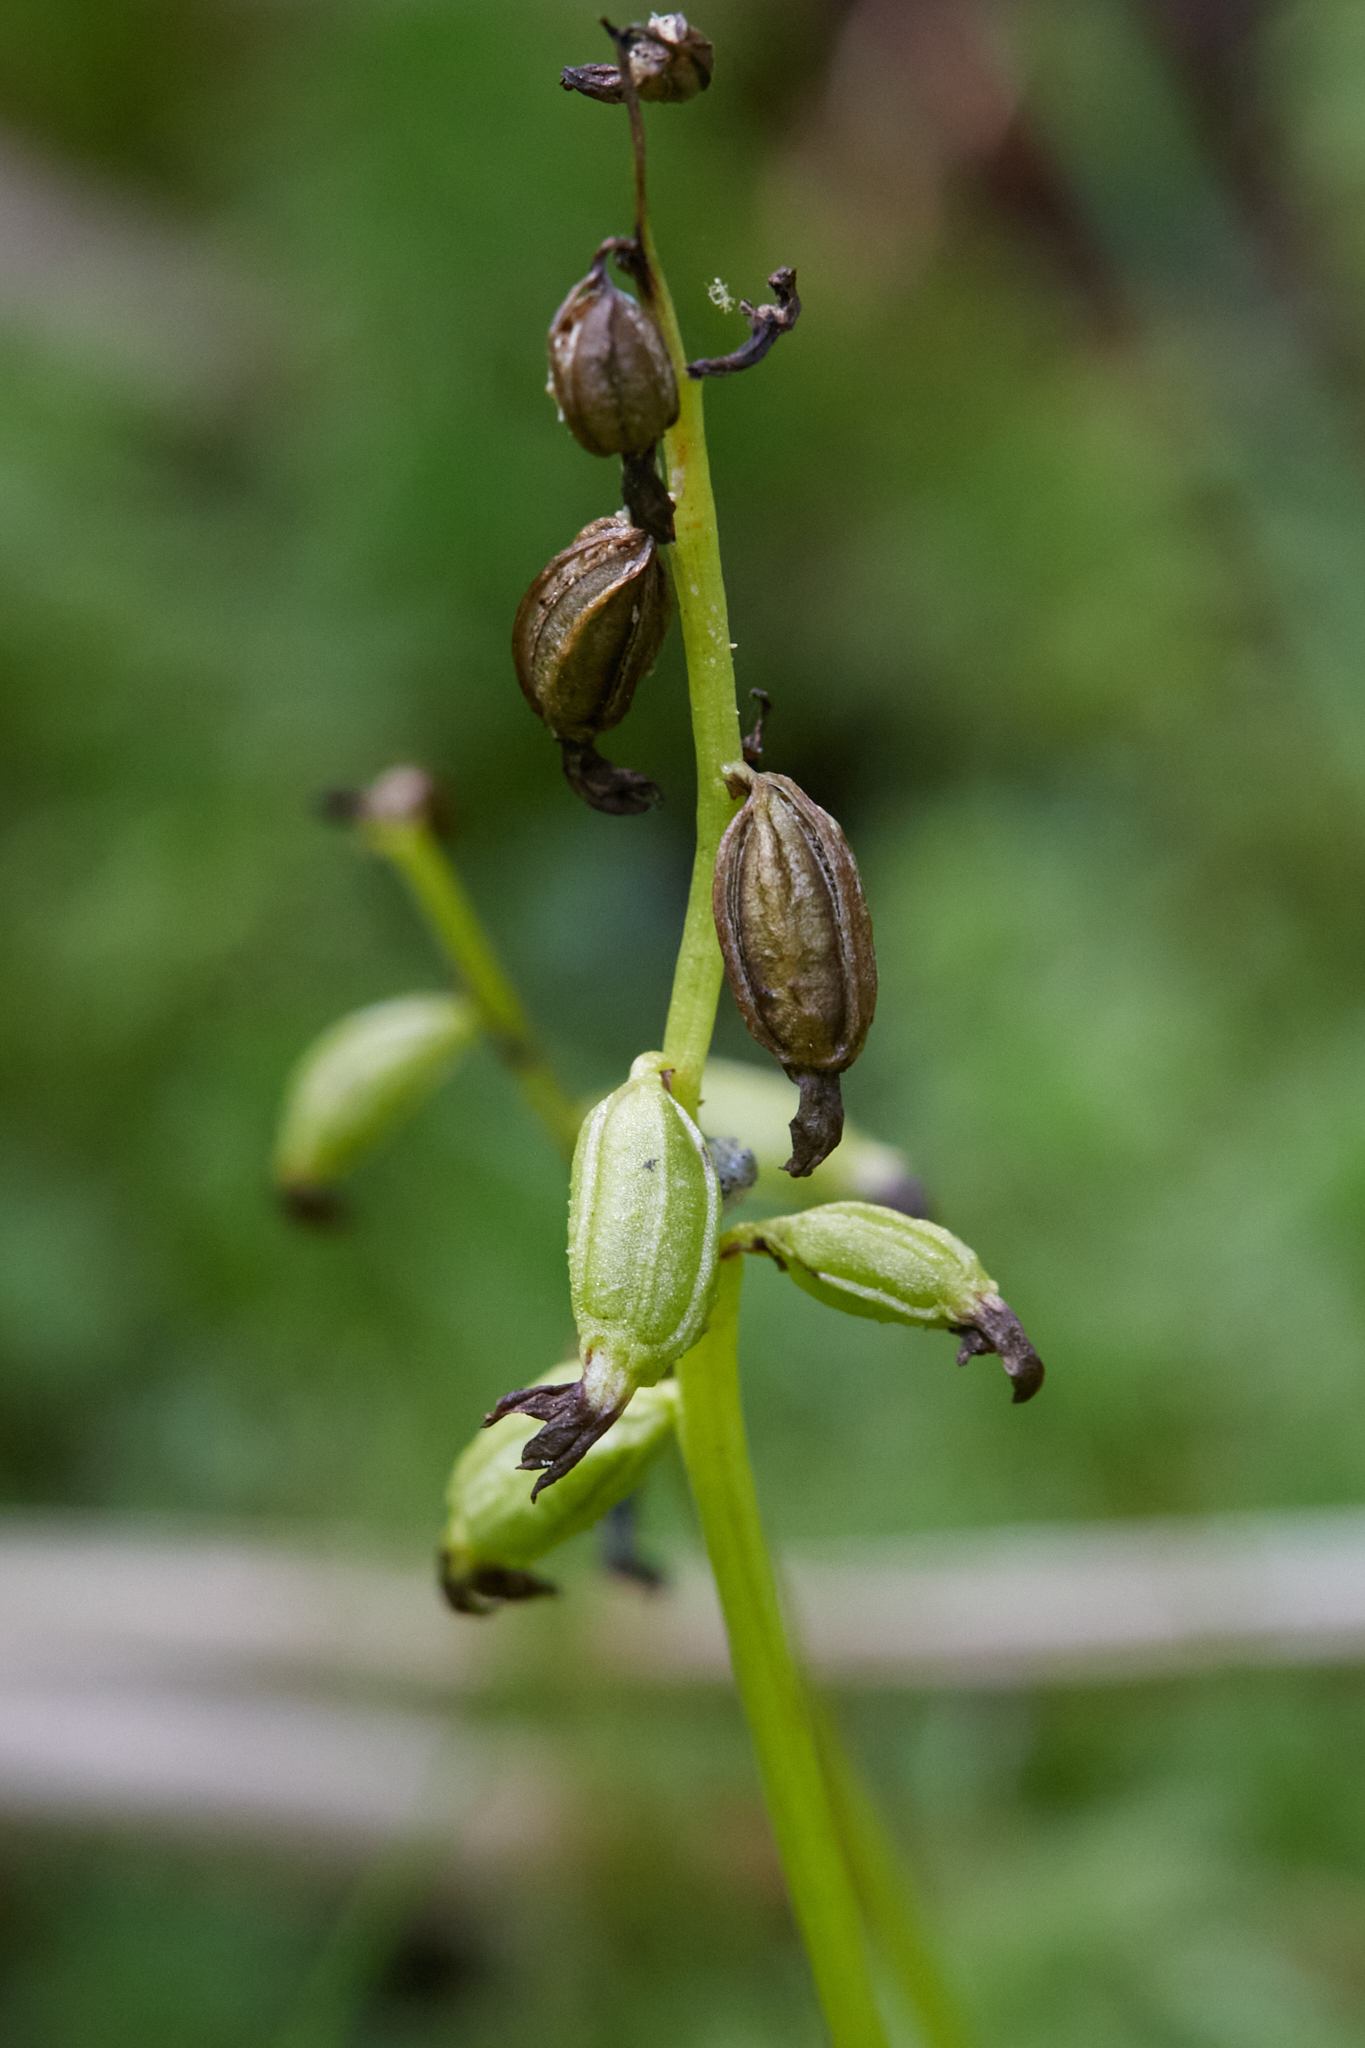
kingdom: Plantae
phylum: Tracheophyta
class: Liliopsida
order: Asparagales
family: Orchidaceae
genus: Corallorhiza
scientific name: Corallorhiza trifida
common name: Yellow coralroot
